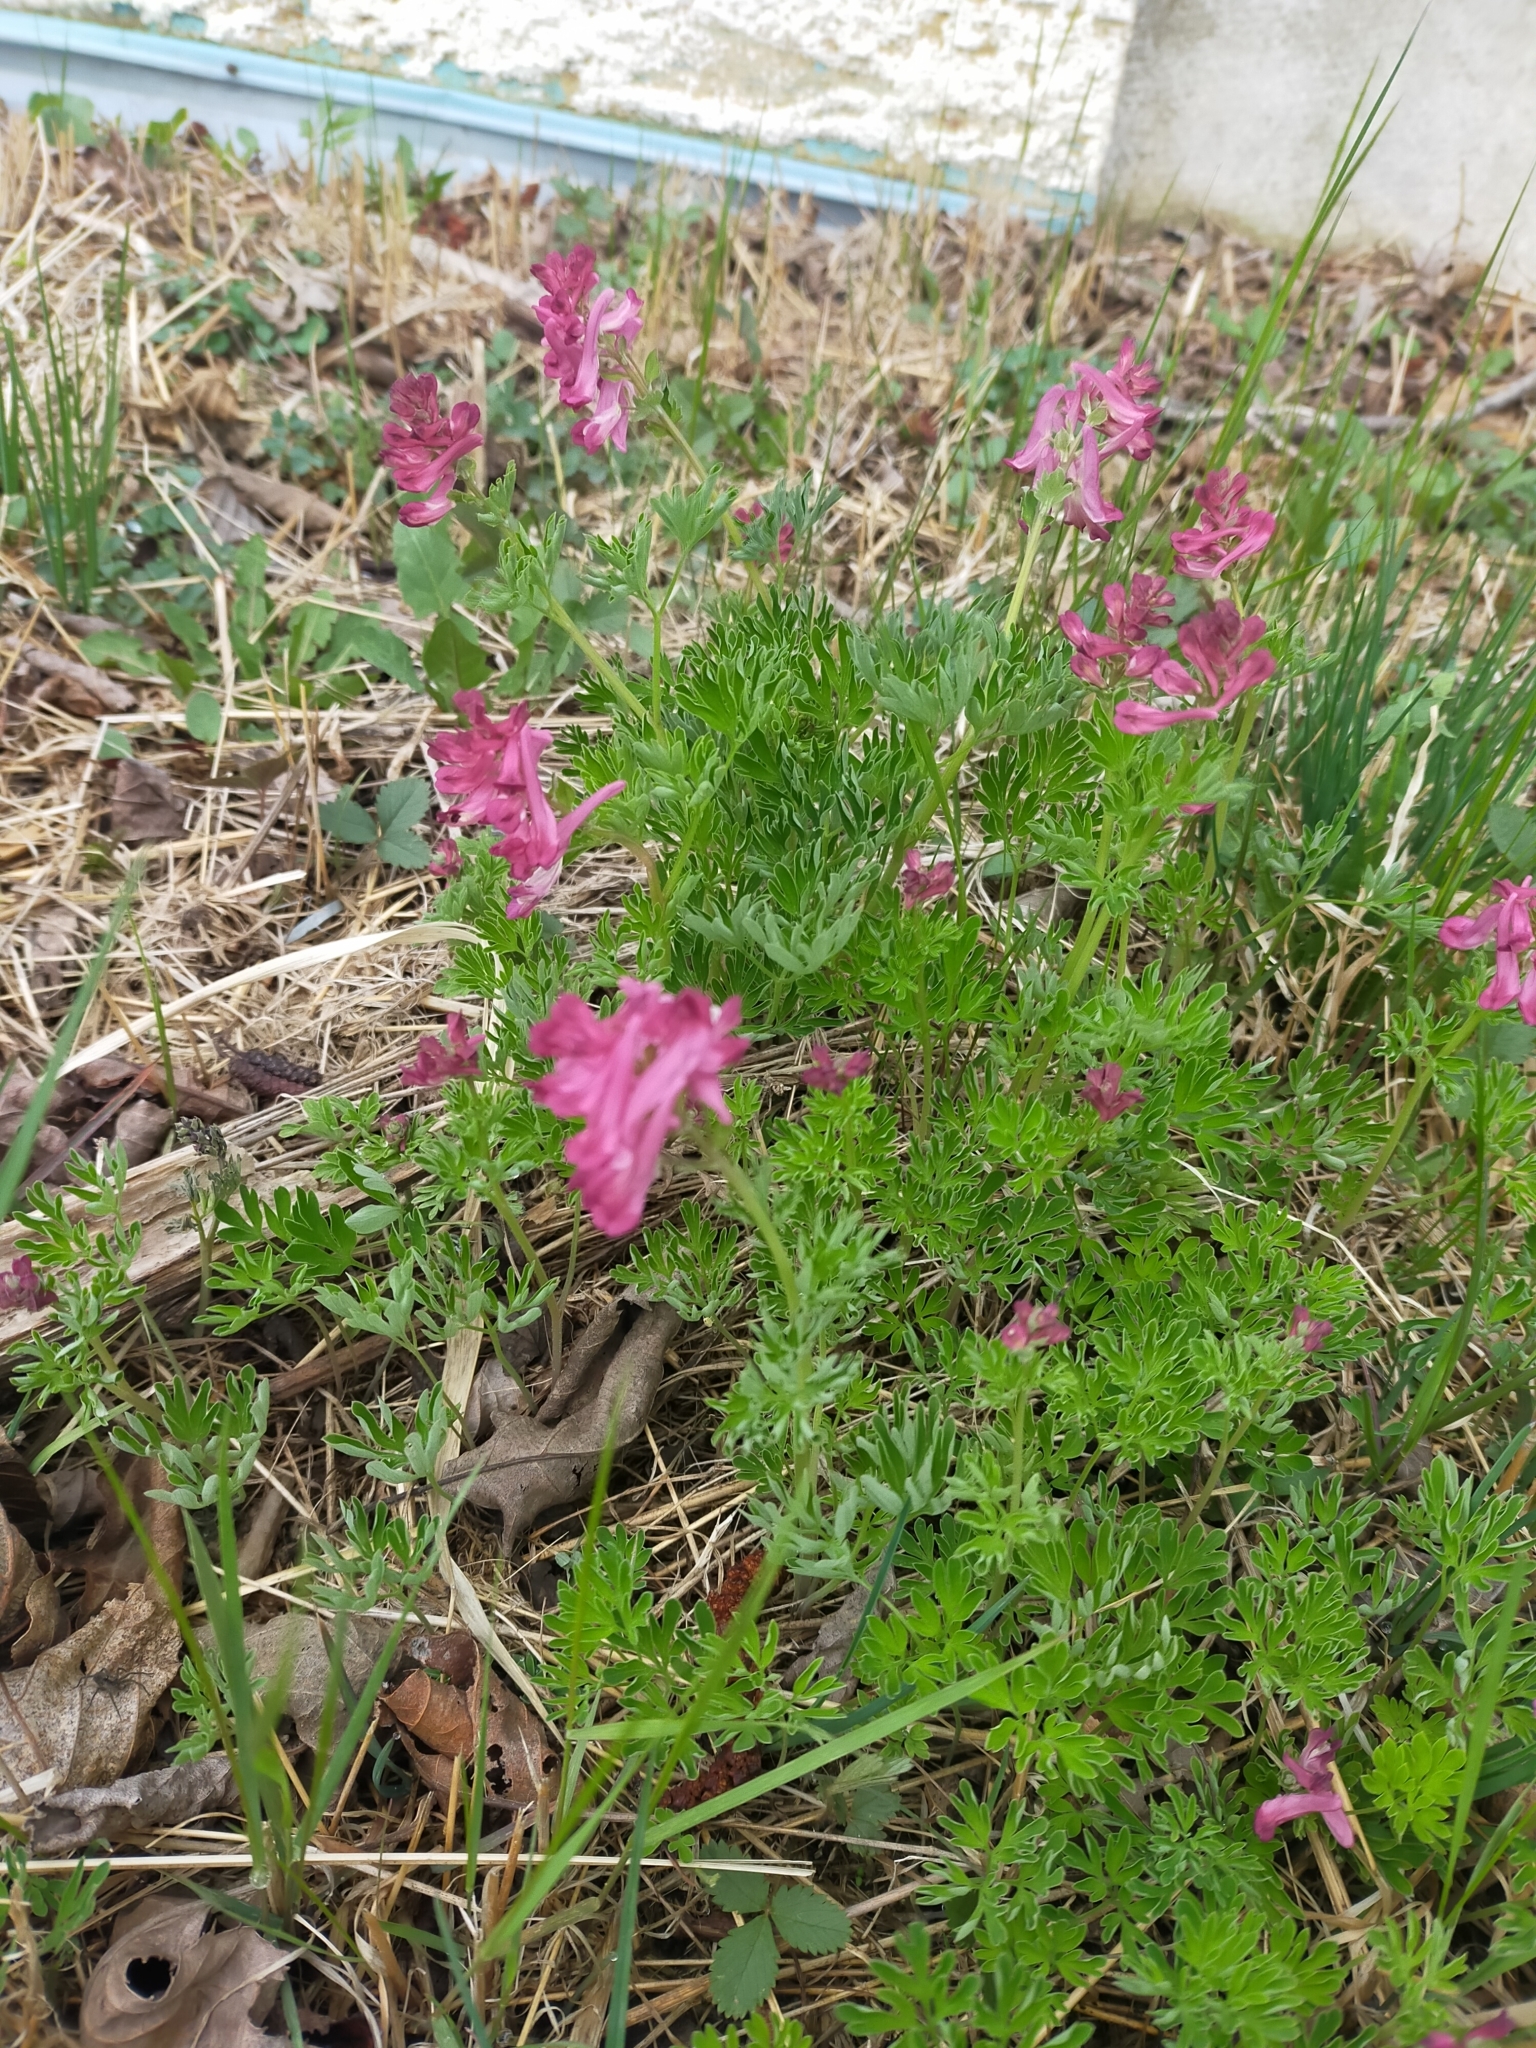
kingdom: Plantae
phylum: Tracheophyta
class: Magnoliopsida
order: Ranunculales
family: Papaveraceae
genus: Corydalis
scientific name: Corydalis buschii
